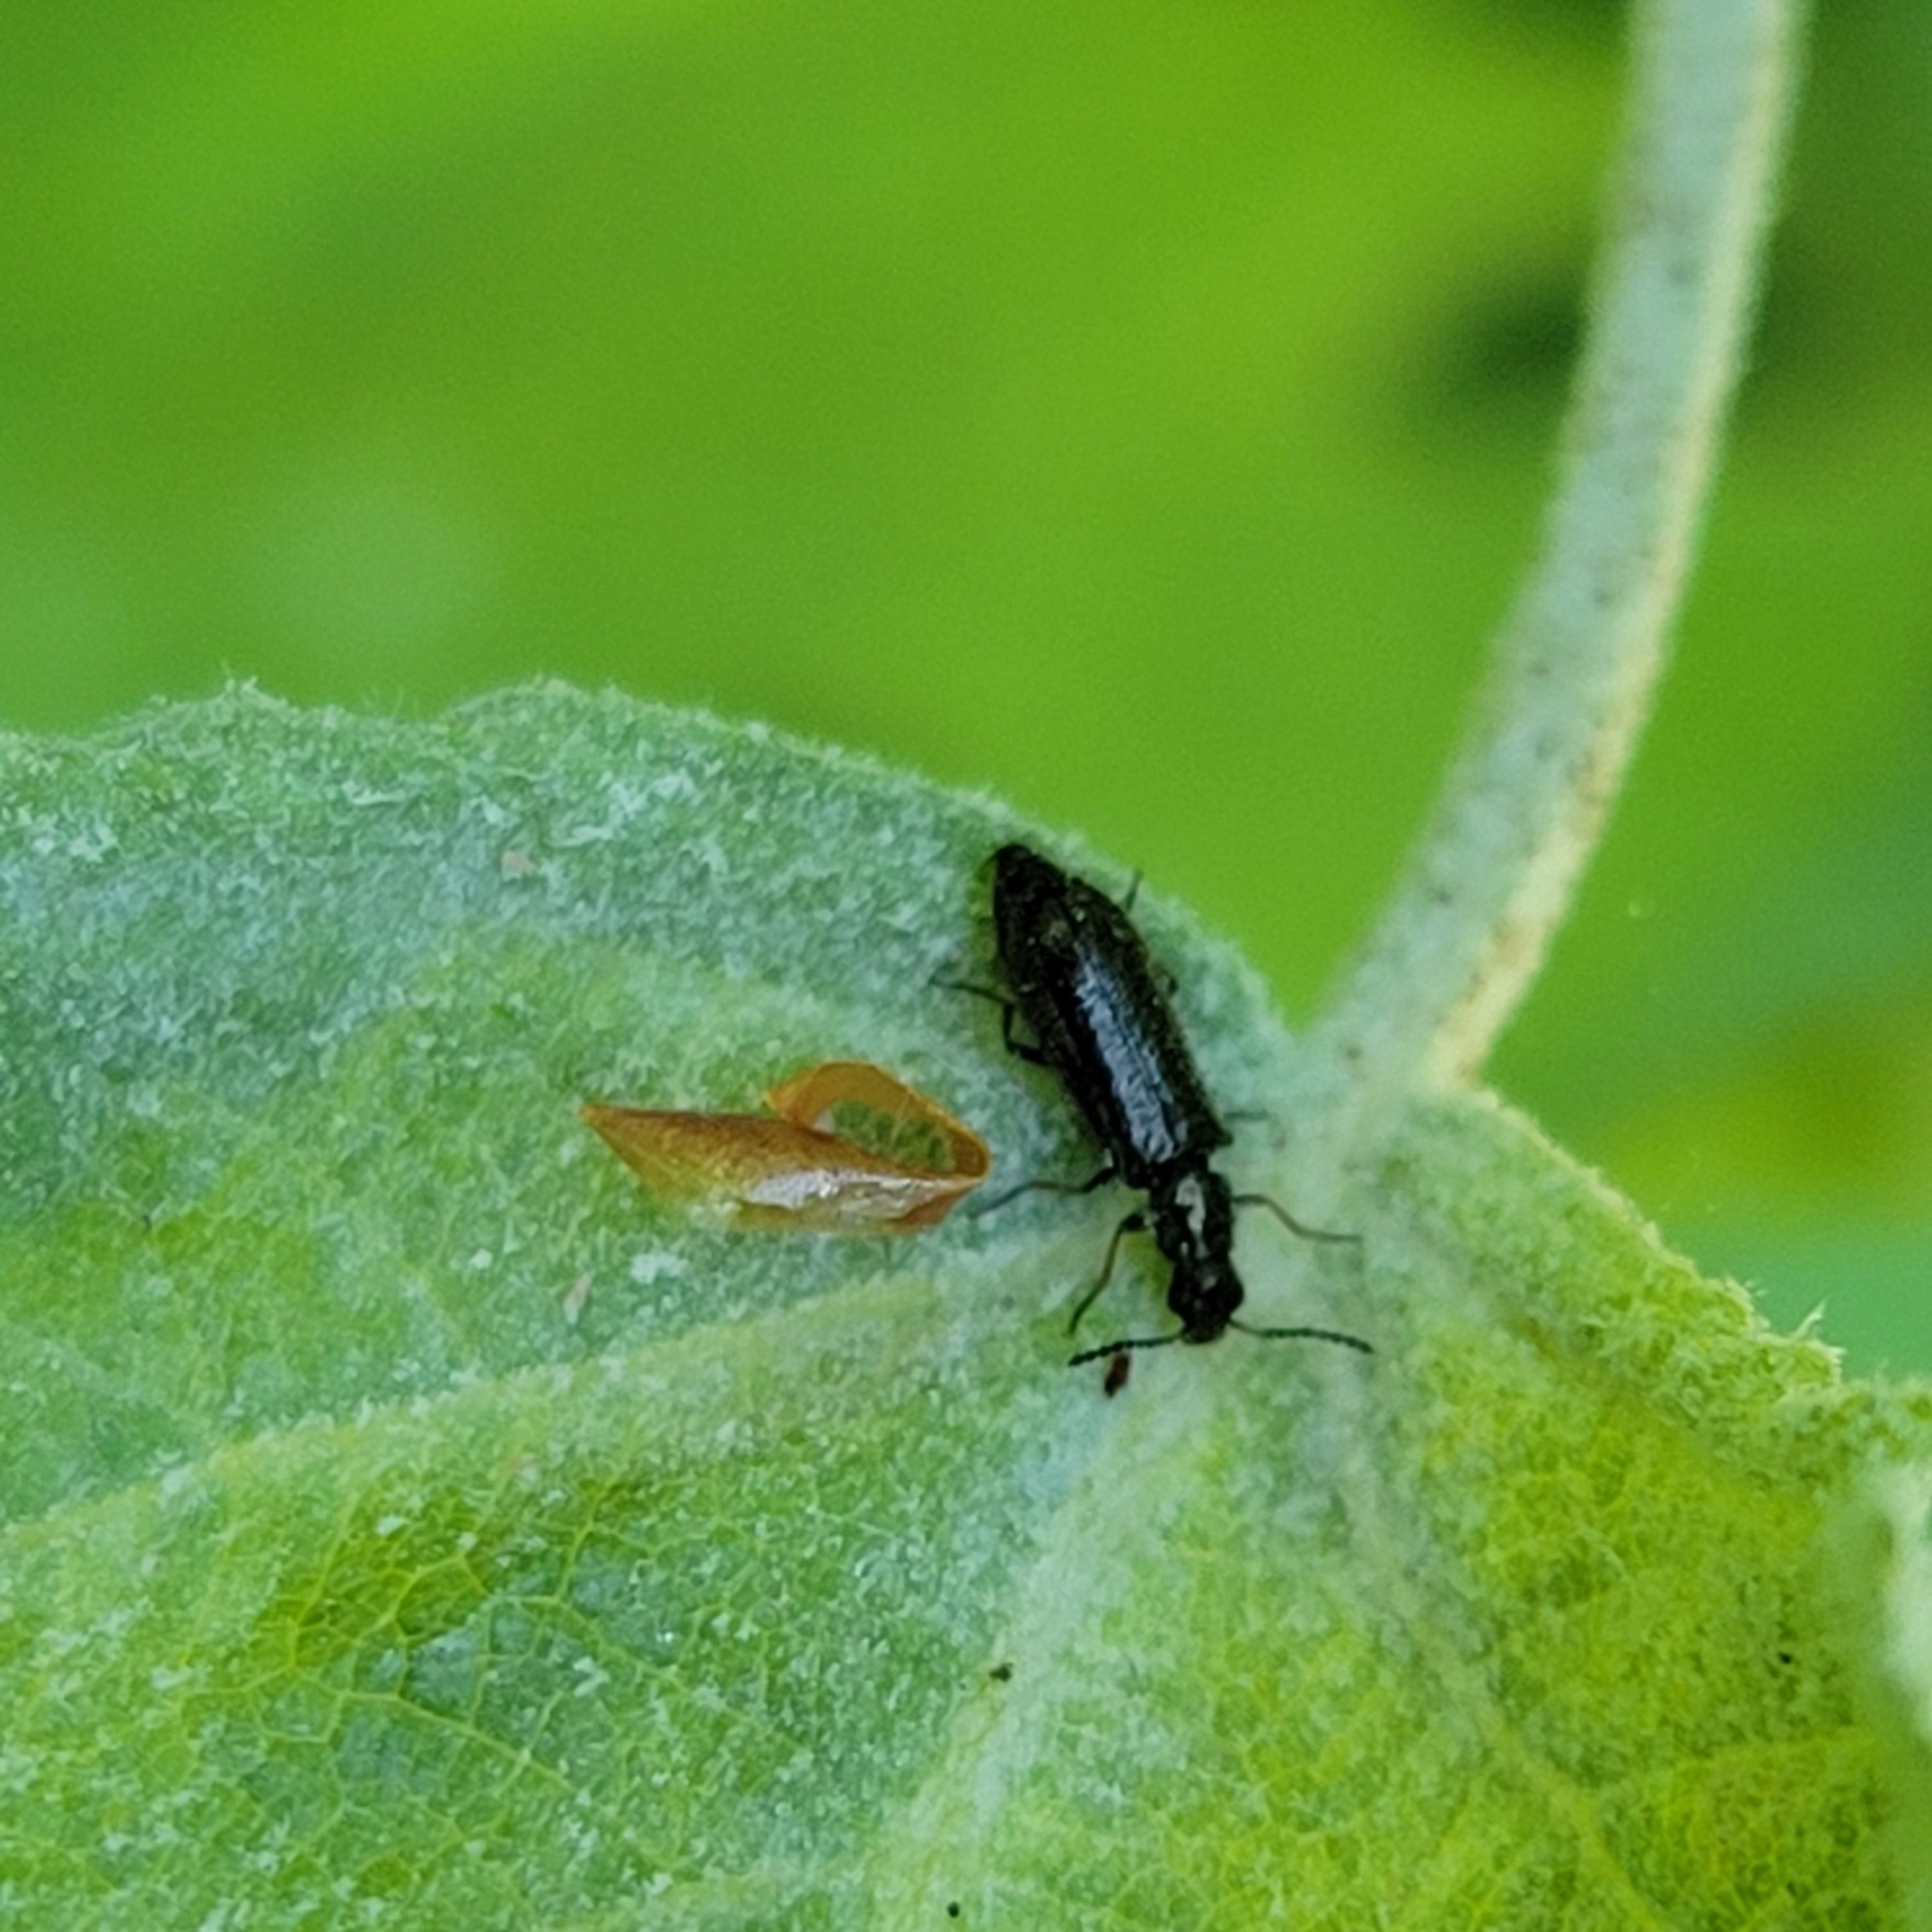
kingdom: Animalia
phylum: Arthropoda
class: Insecta
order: Coleoptera
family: Melyridae
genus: Dasytes
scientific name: Dasytes plumbeus
